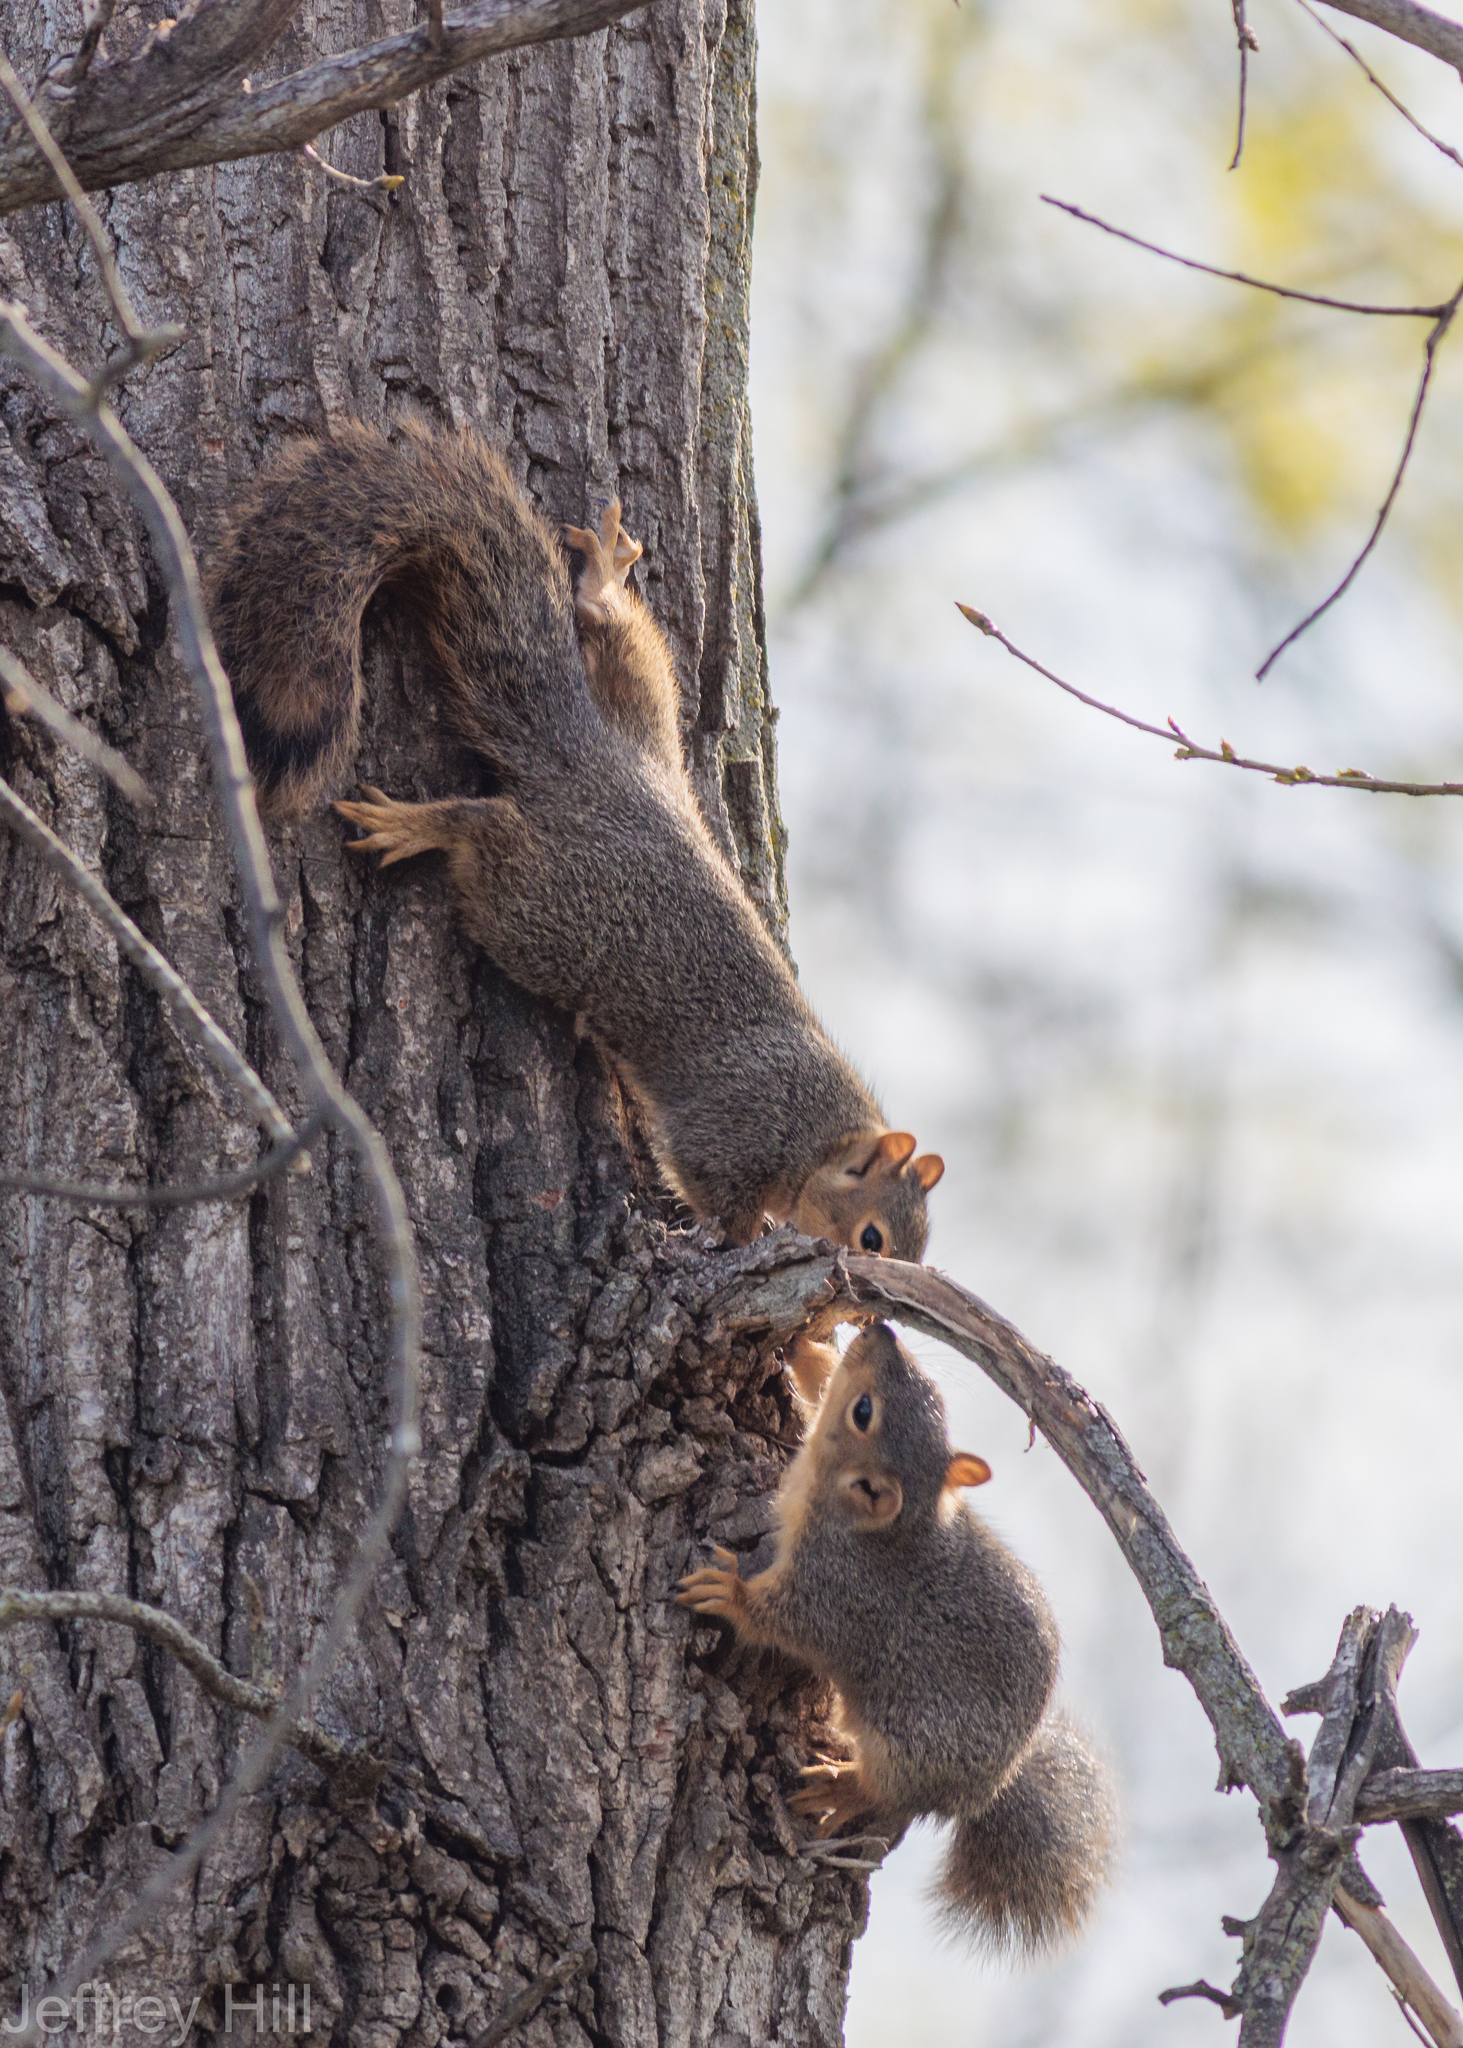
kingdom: Animalia
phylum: Chordata
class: Mammalia
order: Rodentia
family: Sciuridae
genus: Sciurus
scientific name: Sciurus niger
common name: Fox squirrel
